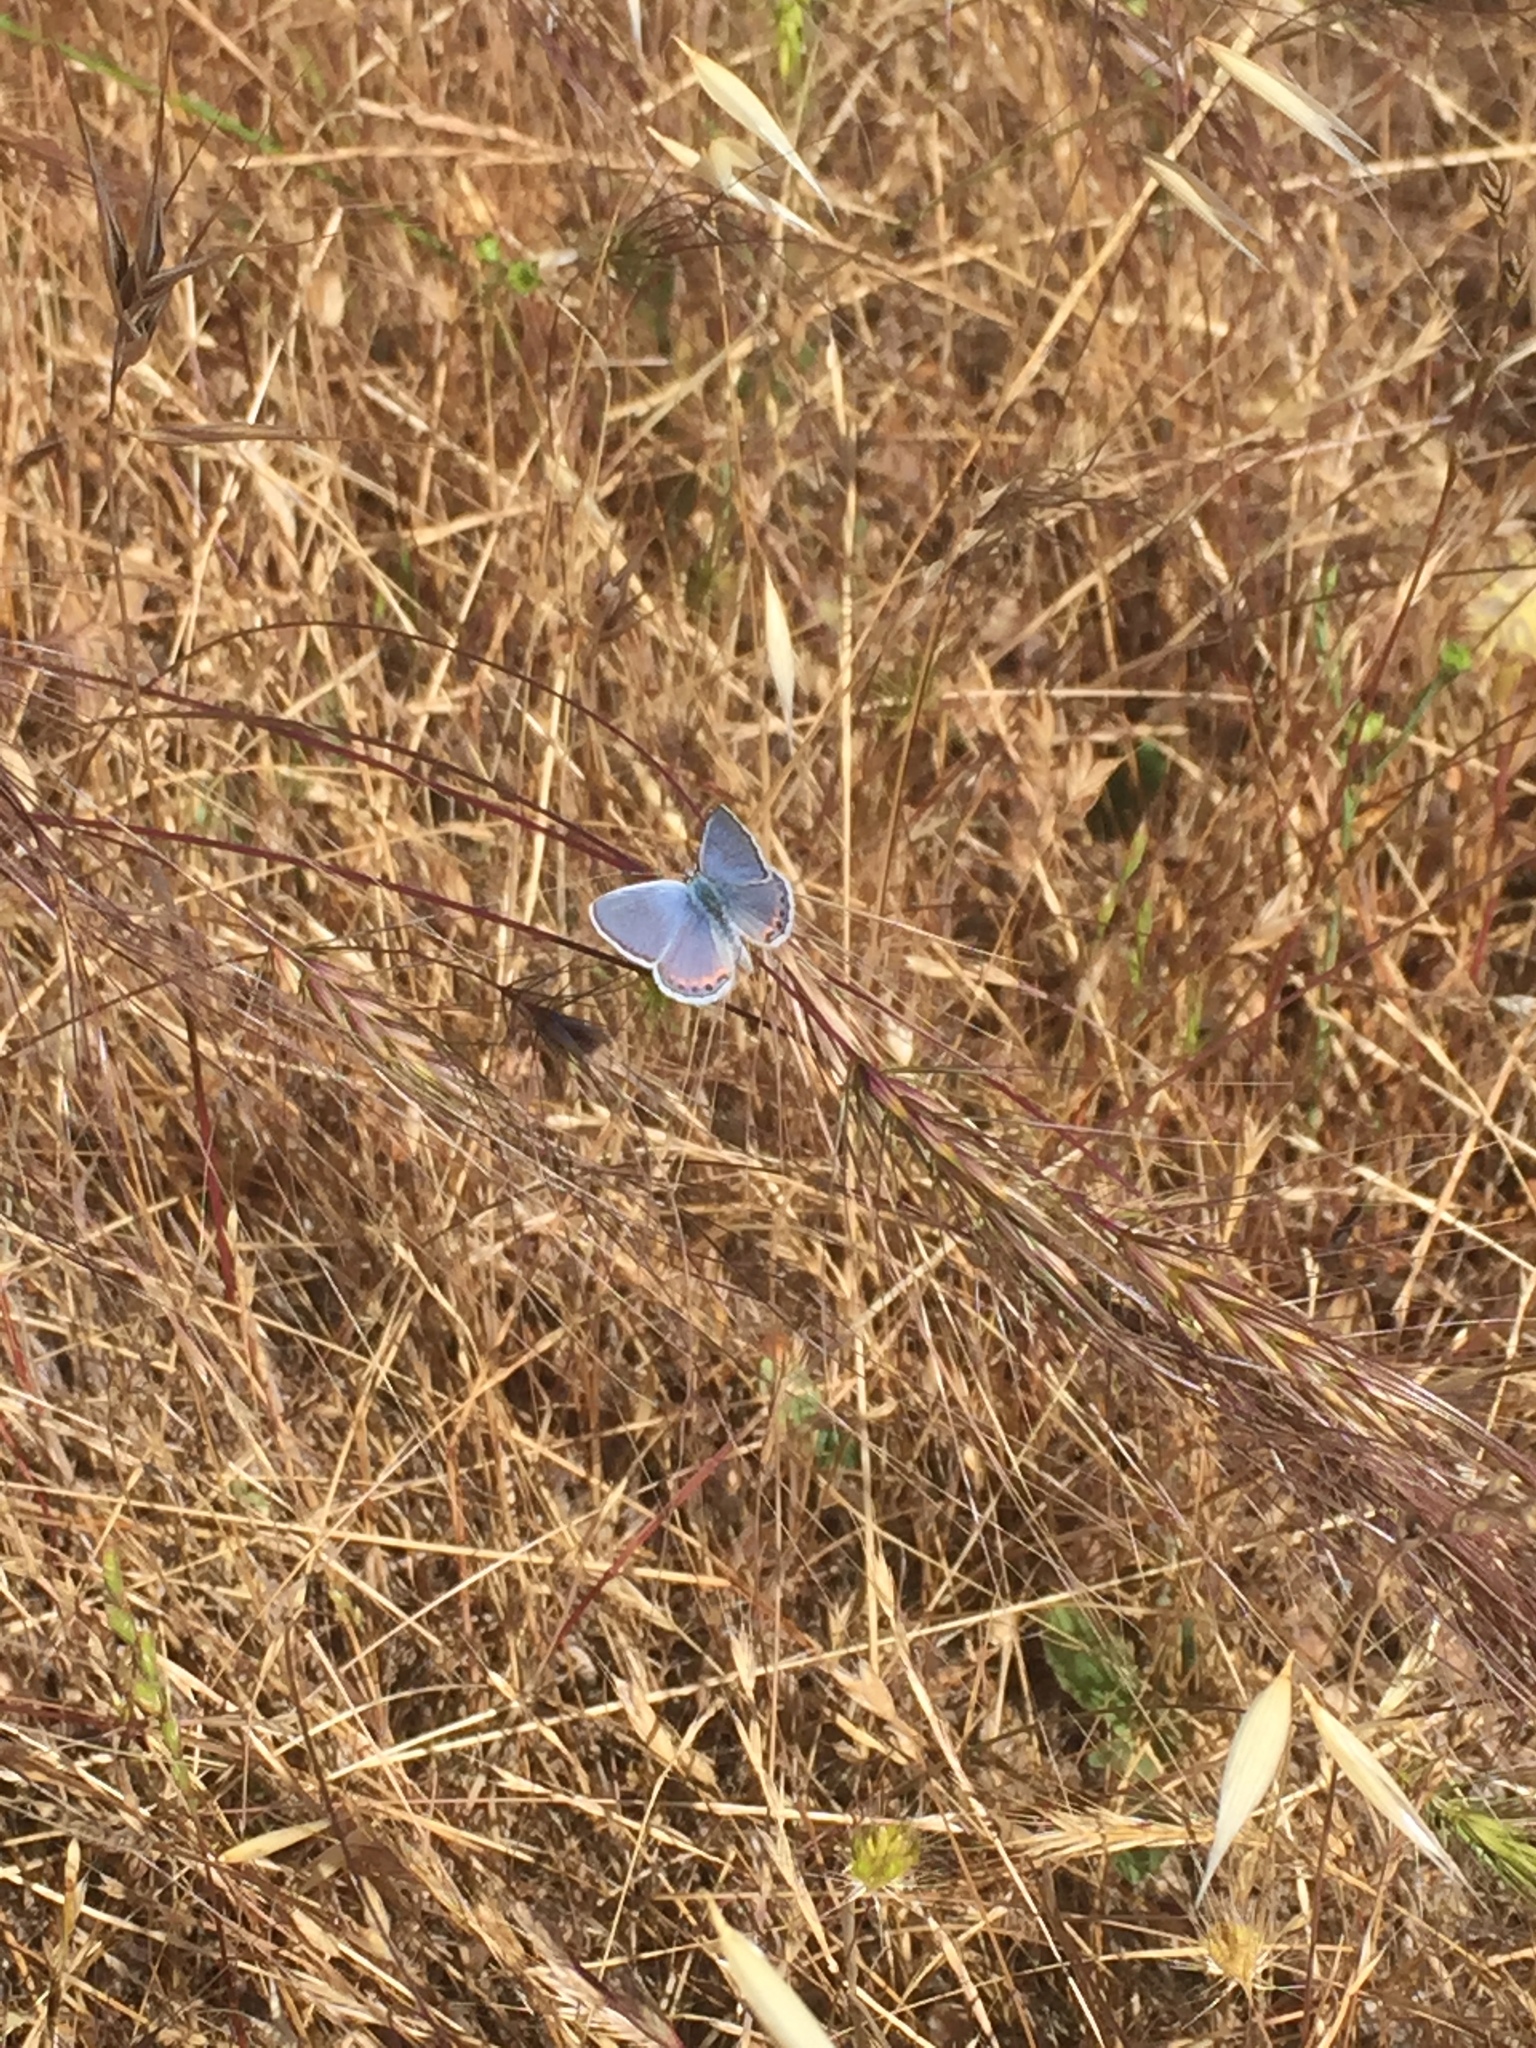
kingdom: Animalia
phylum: Arthropoda
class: Insecta
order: Lepidoptera
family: Lycaenidae
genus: Icaricia
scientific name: Icaricia acmon
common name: Acmon blue
